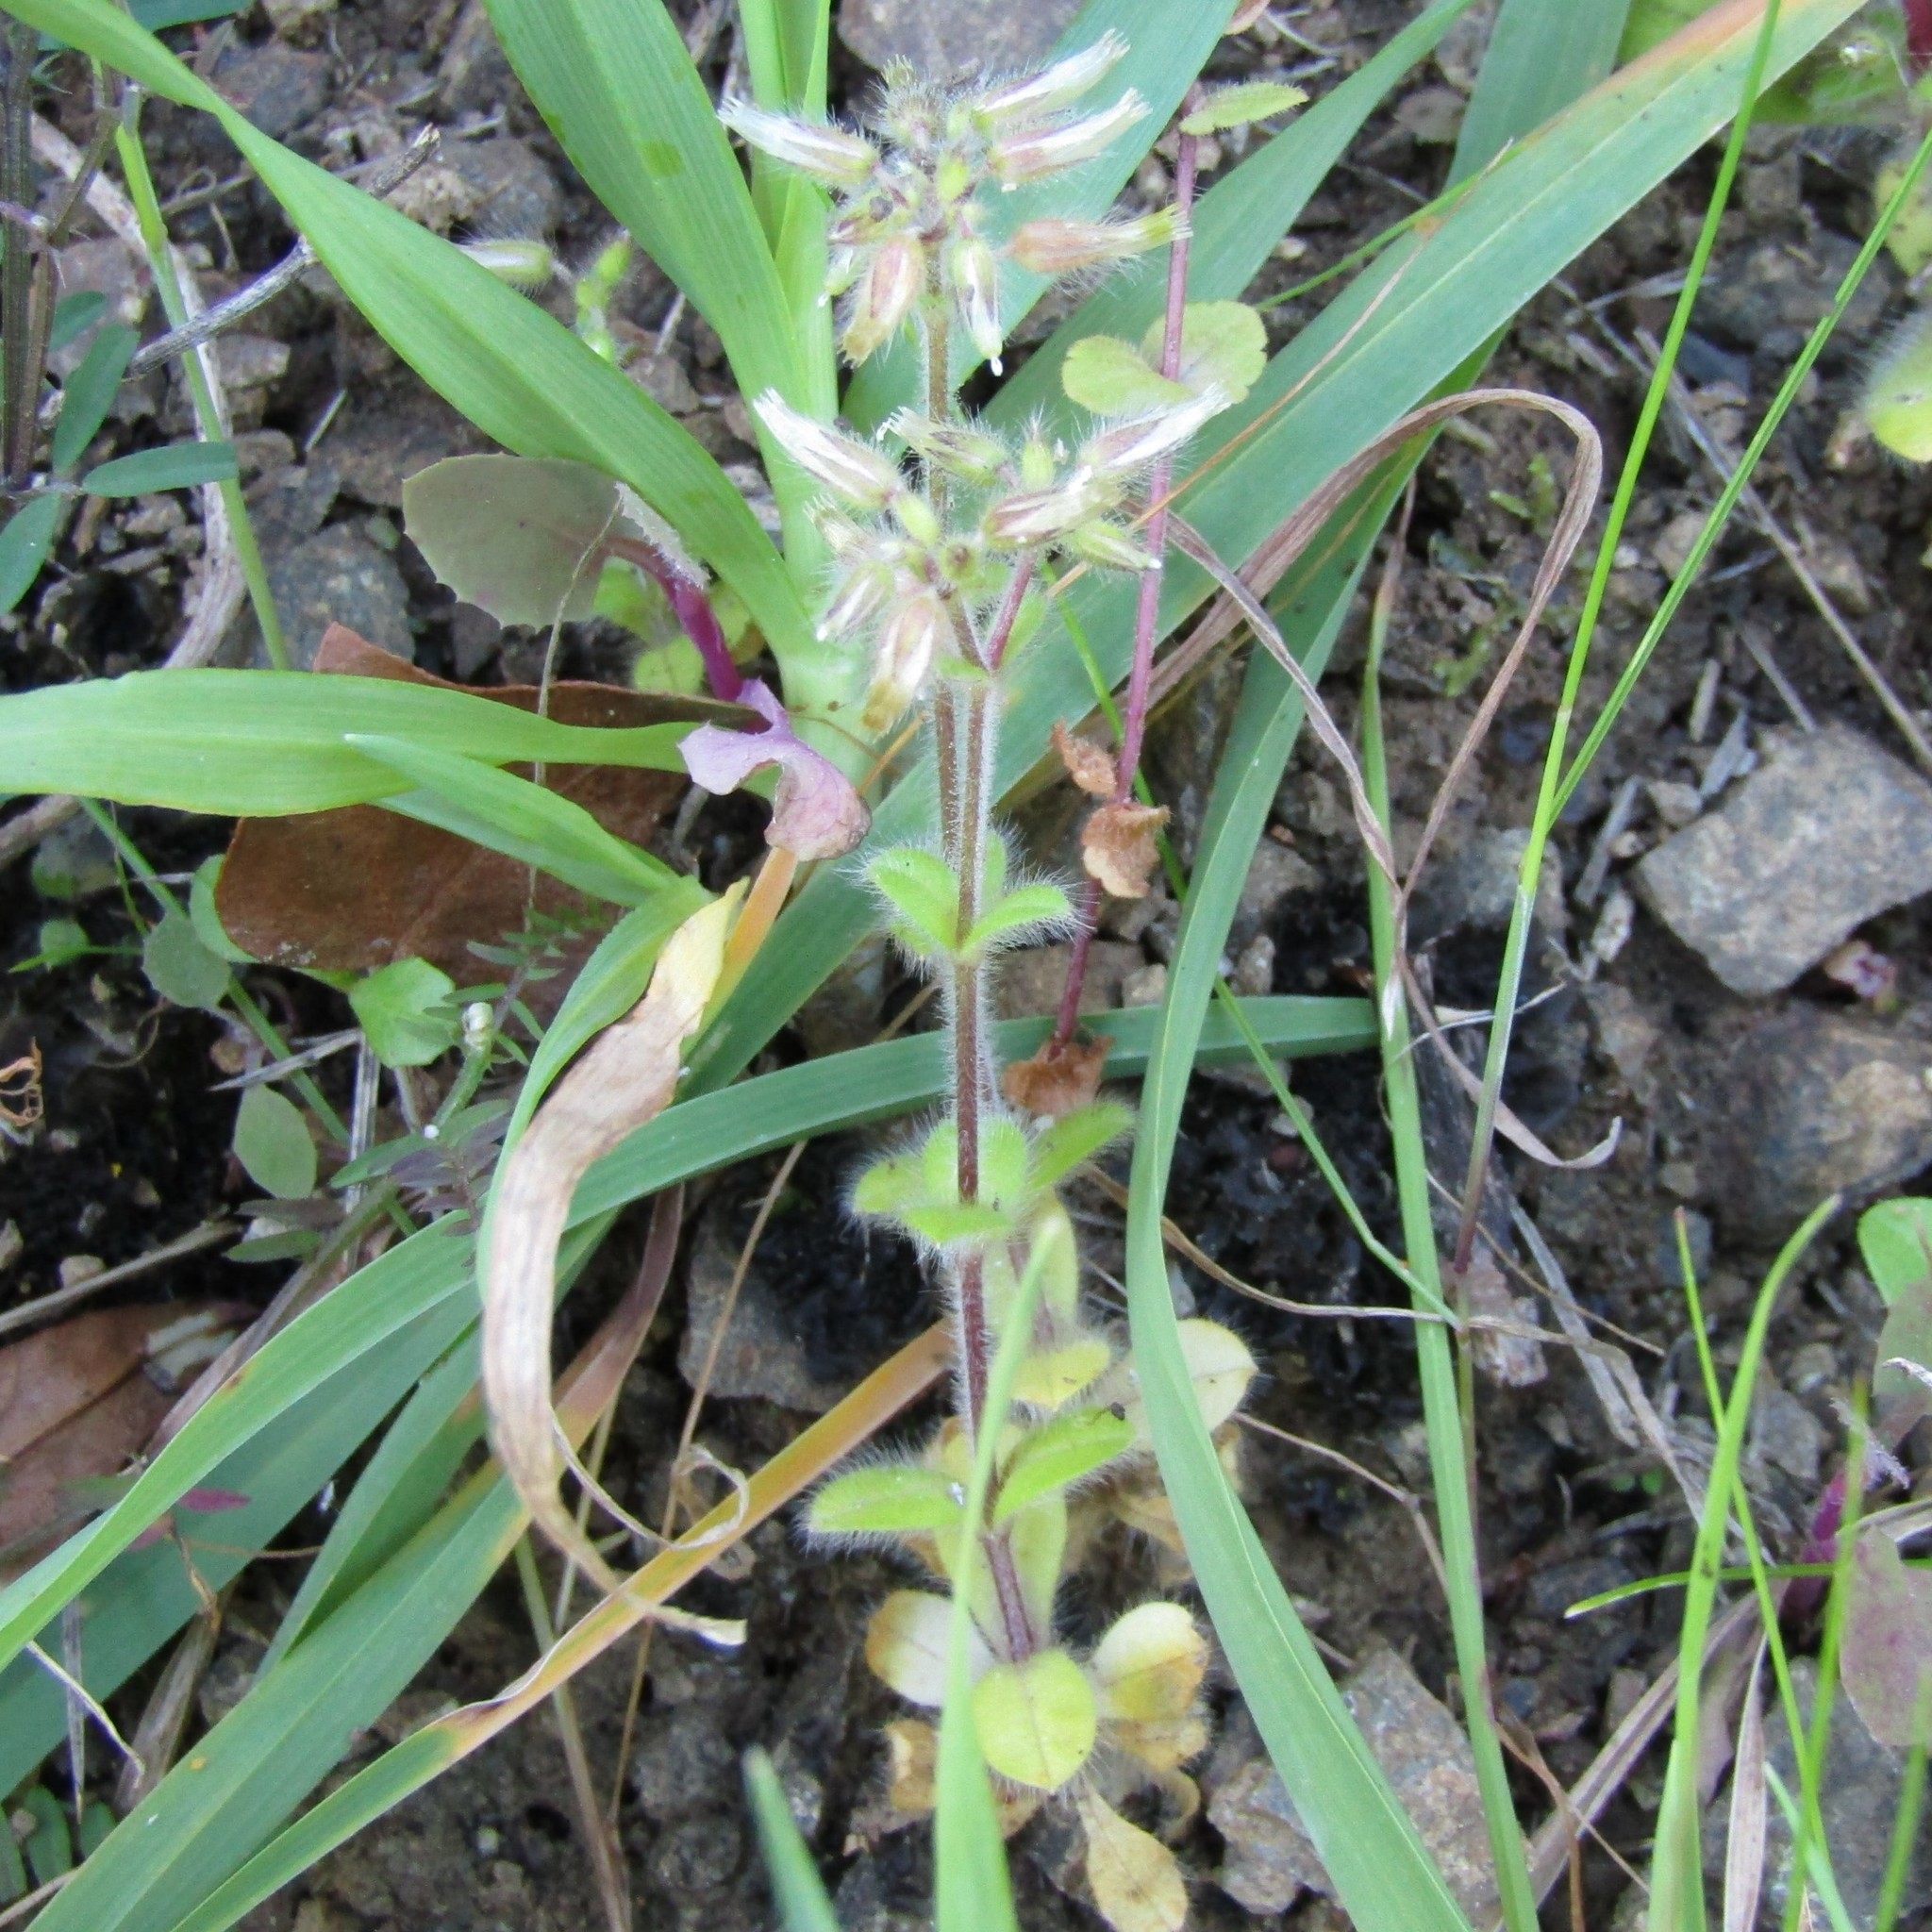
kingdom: Plantae
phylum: Tracheophyta
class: Magnoliopsida
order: Caryophyllales
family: Caryophyllaceae
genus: Cerastium
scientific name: Cerastium glomeratum
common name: Sticky chickweed
